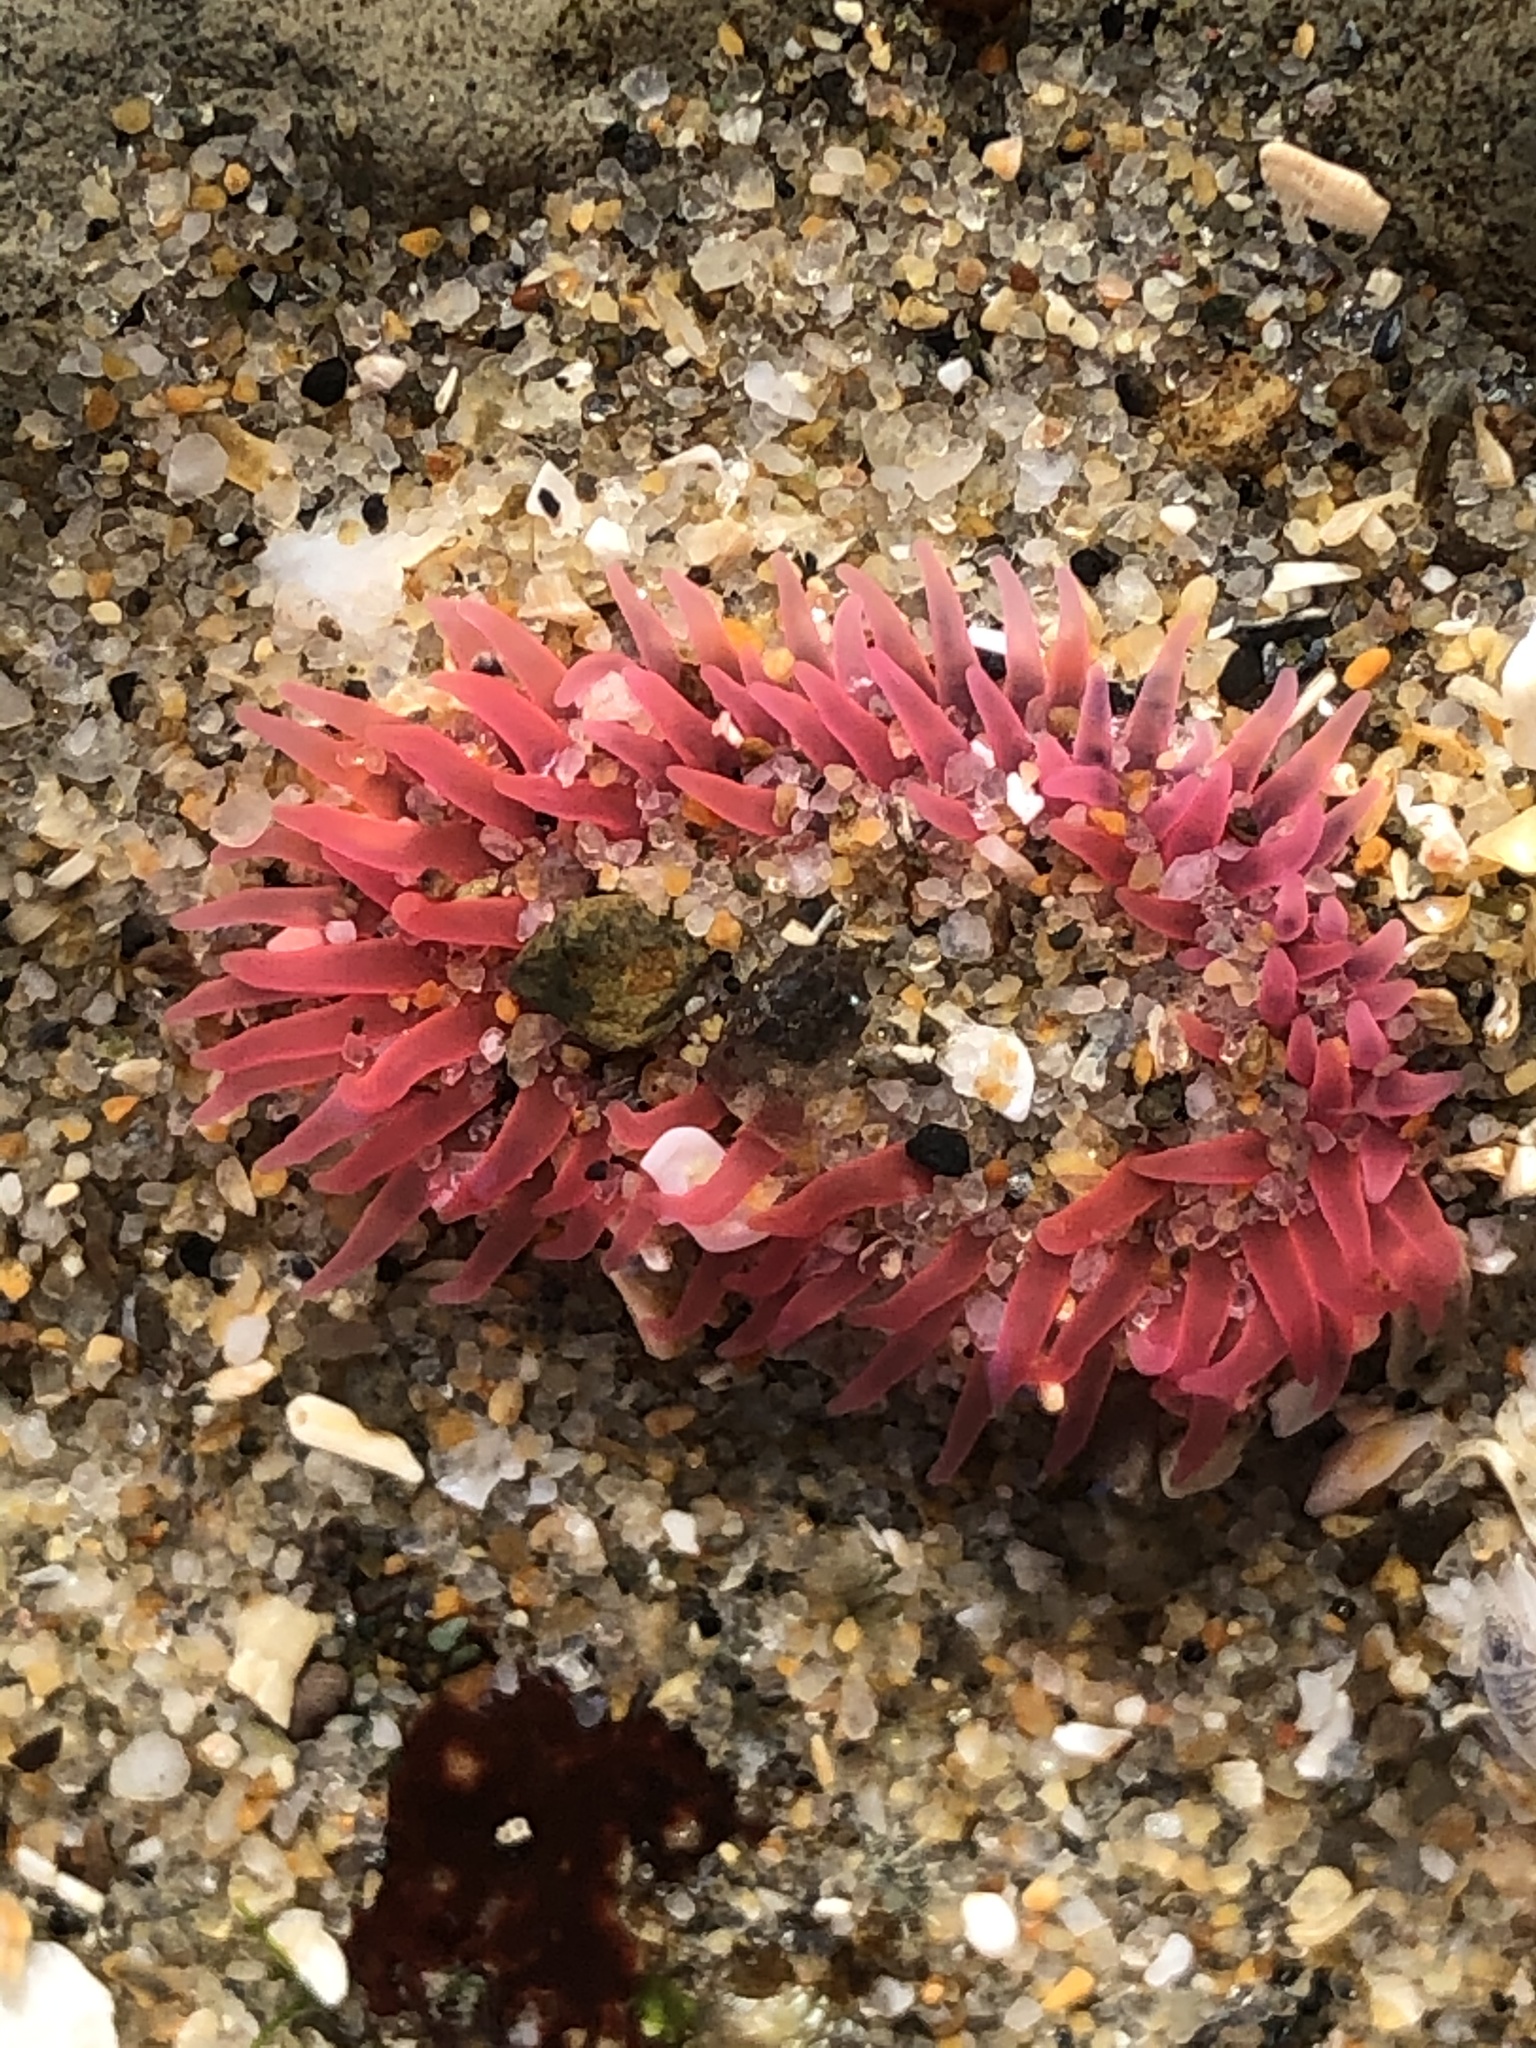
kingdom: Animalia
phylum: Cnidaria
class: Anthozoa
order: Actiniaria
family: Actiniidae
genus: Anthopleura
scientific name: Anthopleura artemisia
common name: Buried sea anemone
